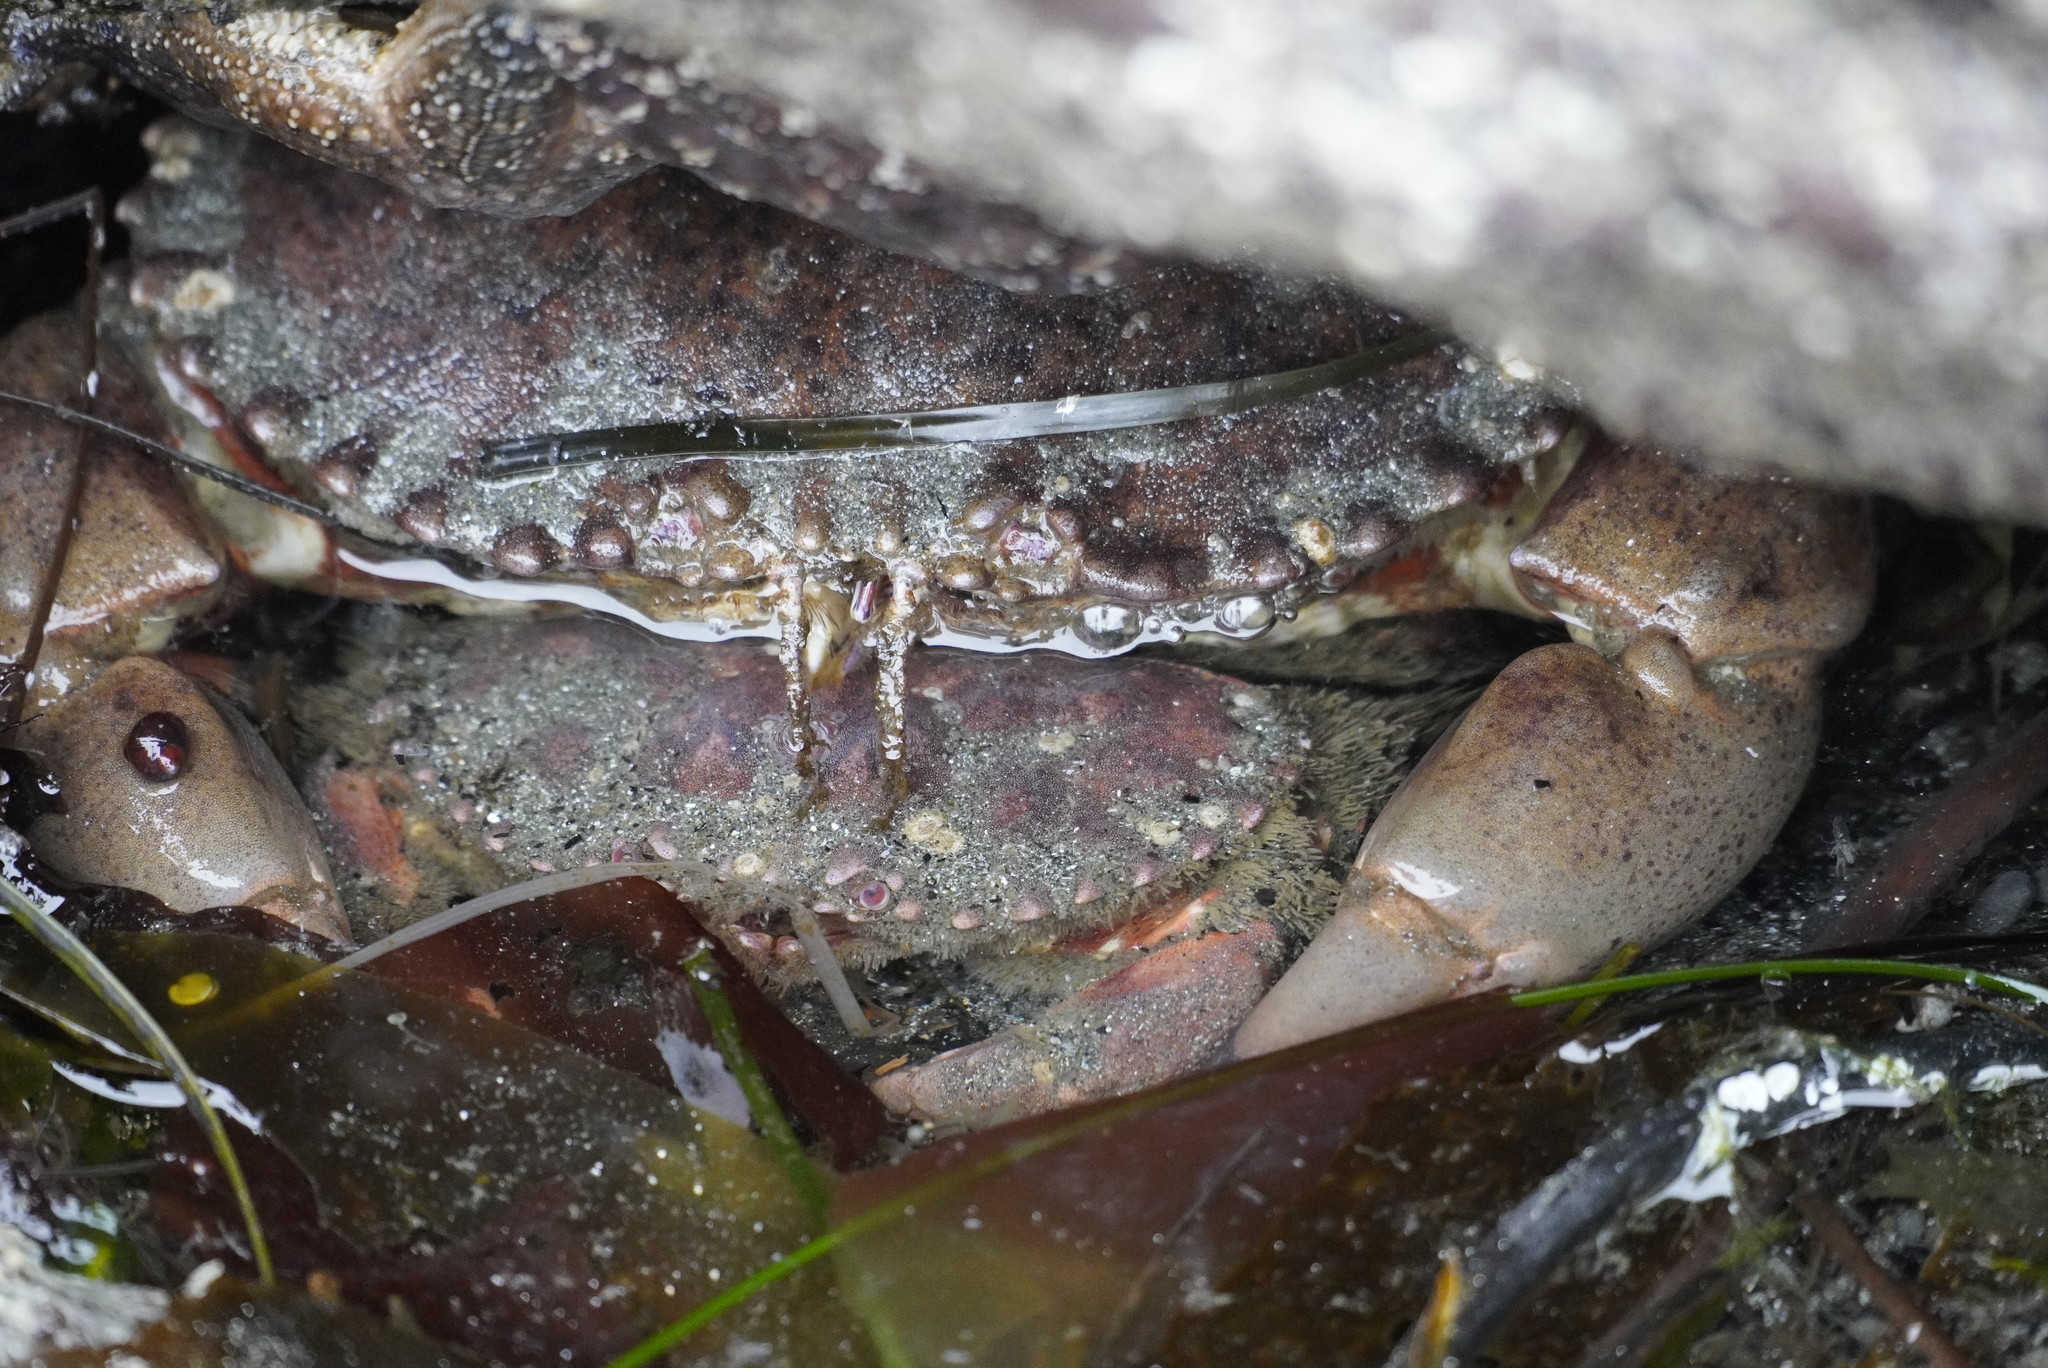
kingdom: Animalia
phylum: Arthropoda
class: Malacostraca
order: Decapoda
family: Cancridae
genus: Romaleon
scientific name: Romaleon antennarium
